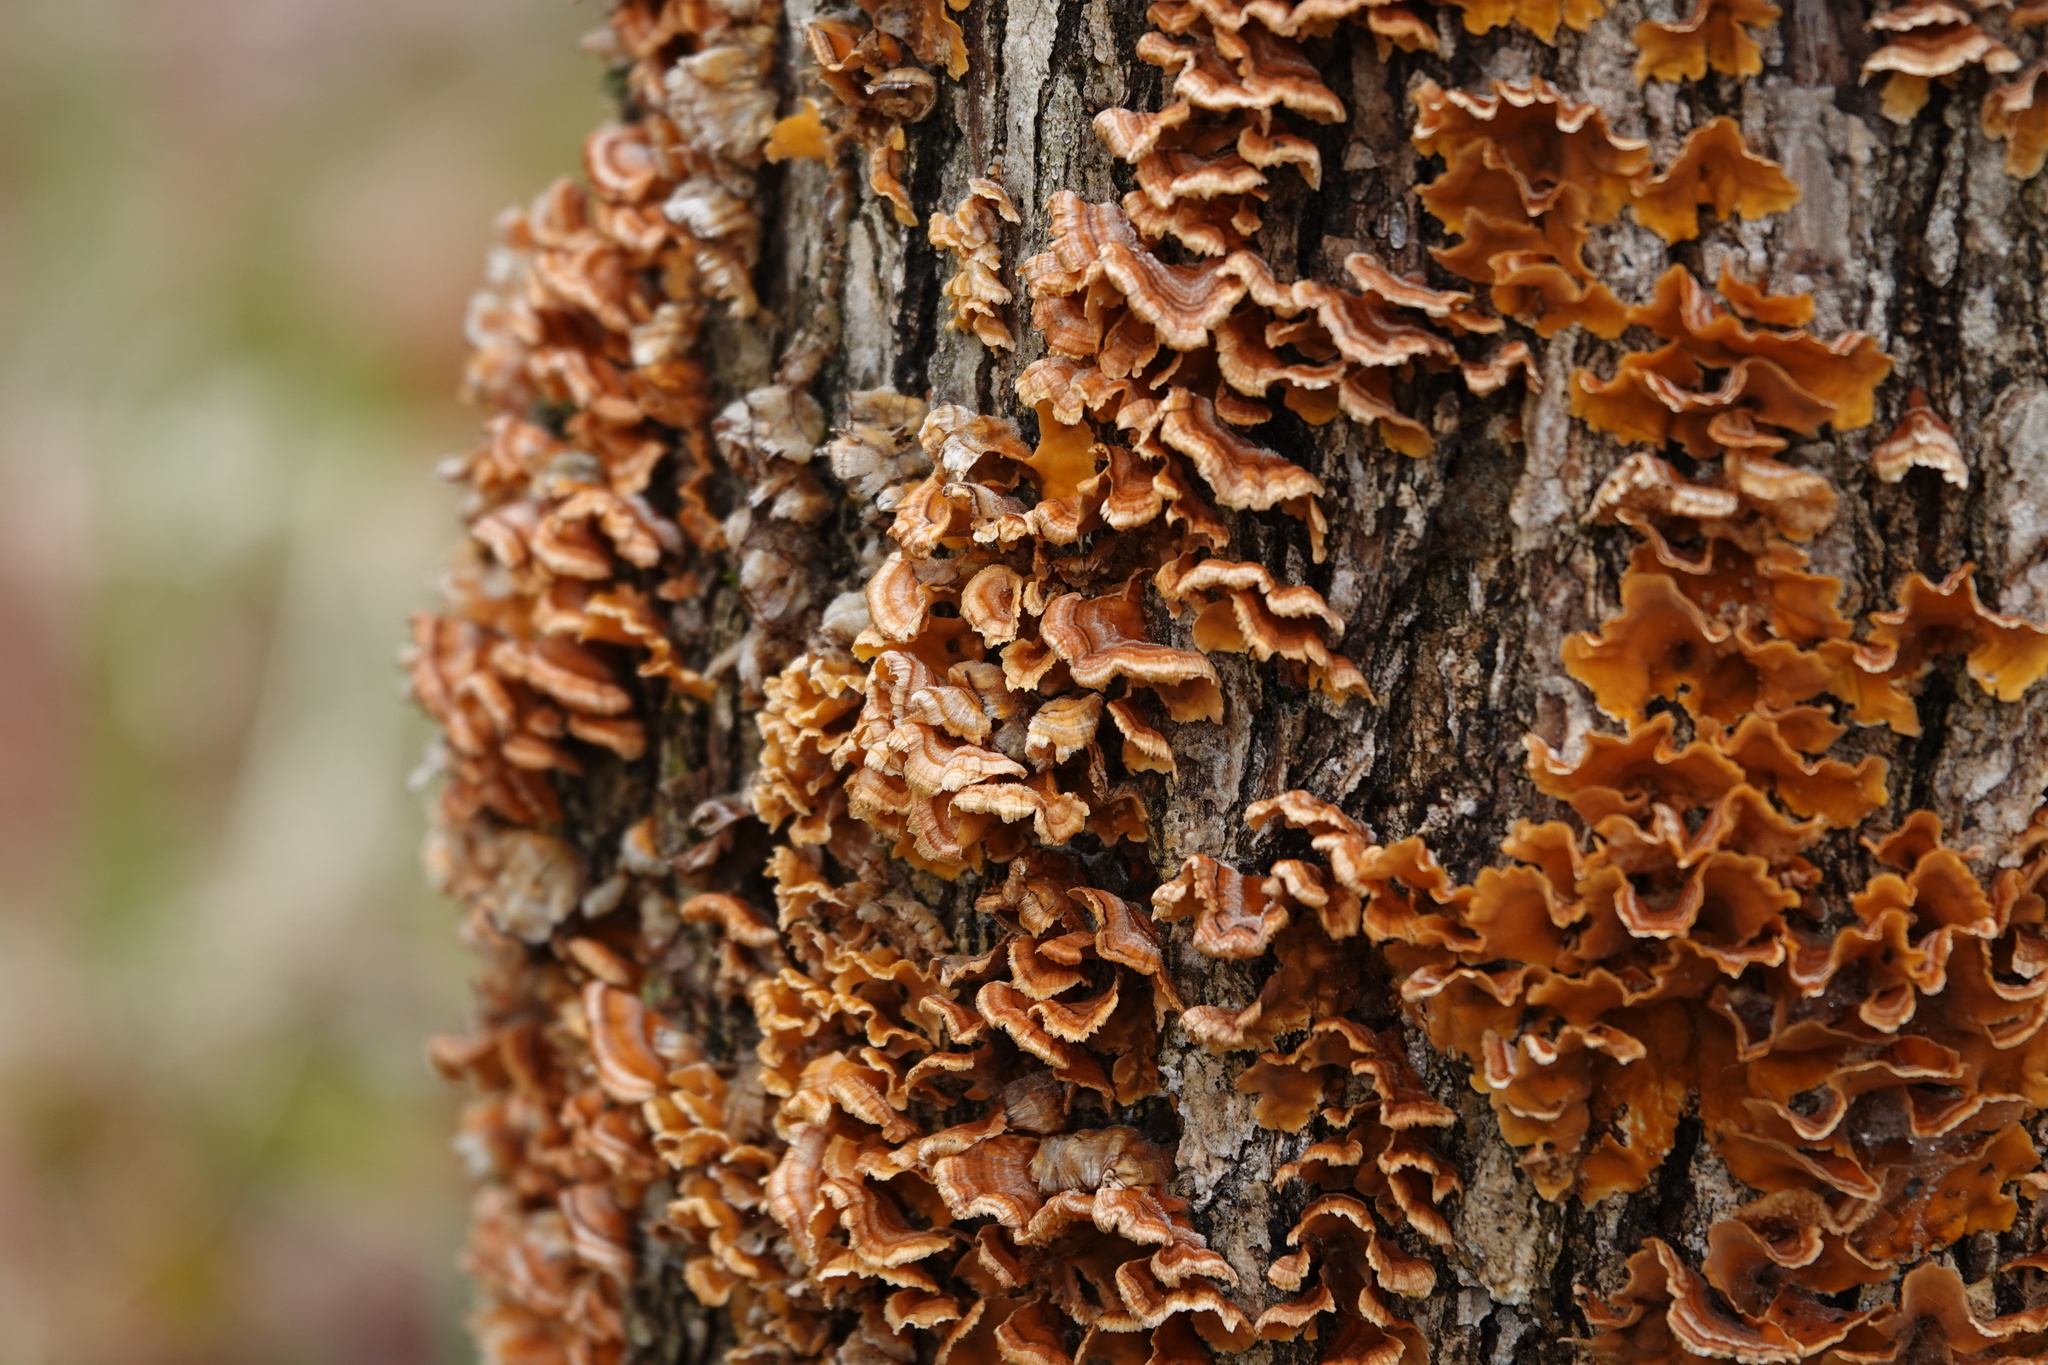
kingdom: Fungi
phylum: Basidiomycota
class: Agaricomycetes
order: Russulales
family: Stereaceae
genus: Stereum
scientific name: Stereum complicatum
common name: Crowded parchment
